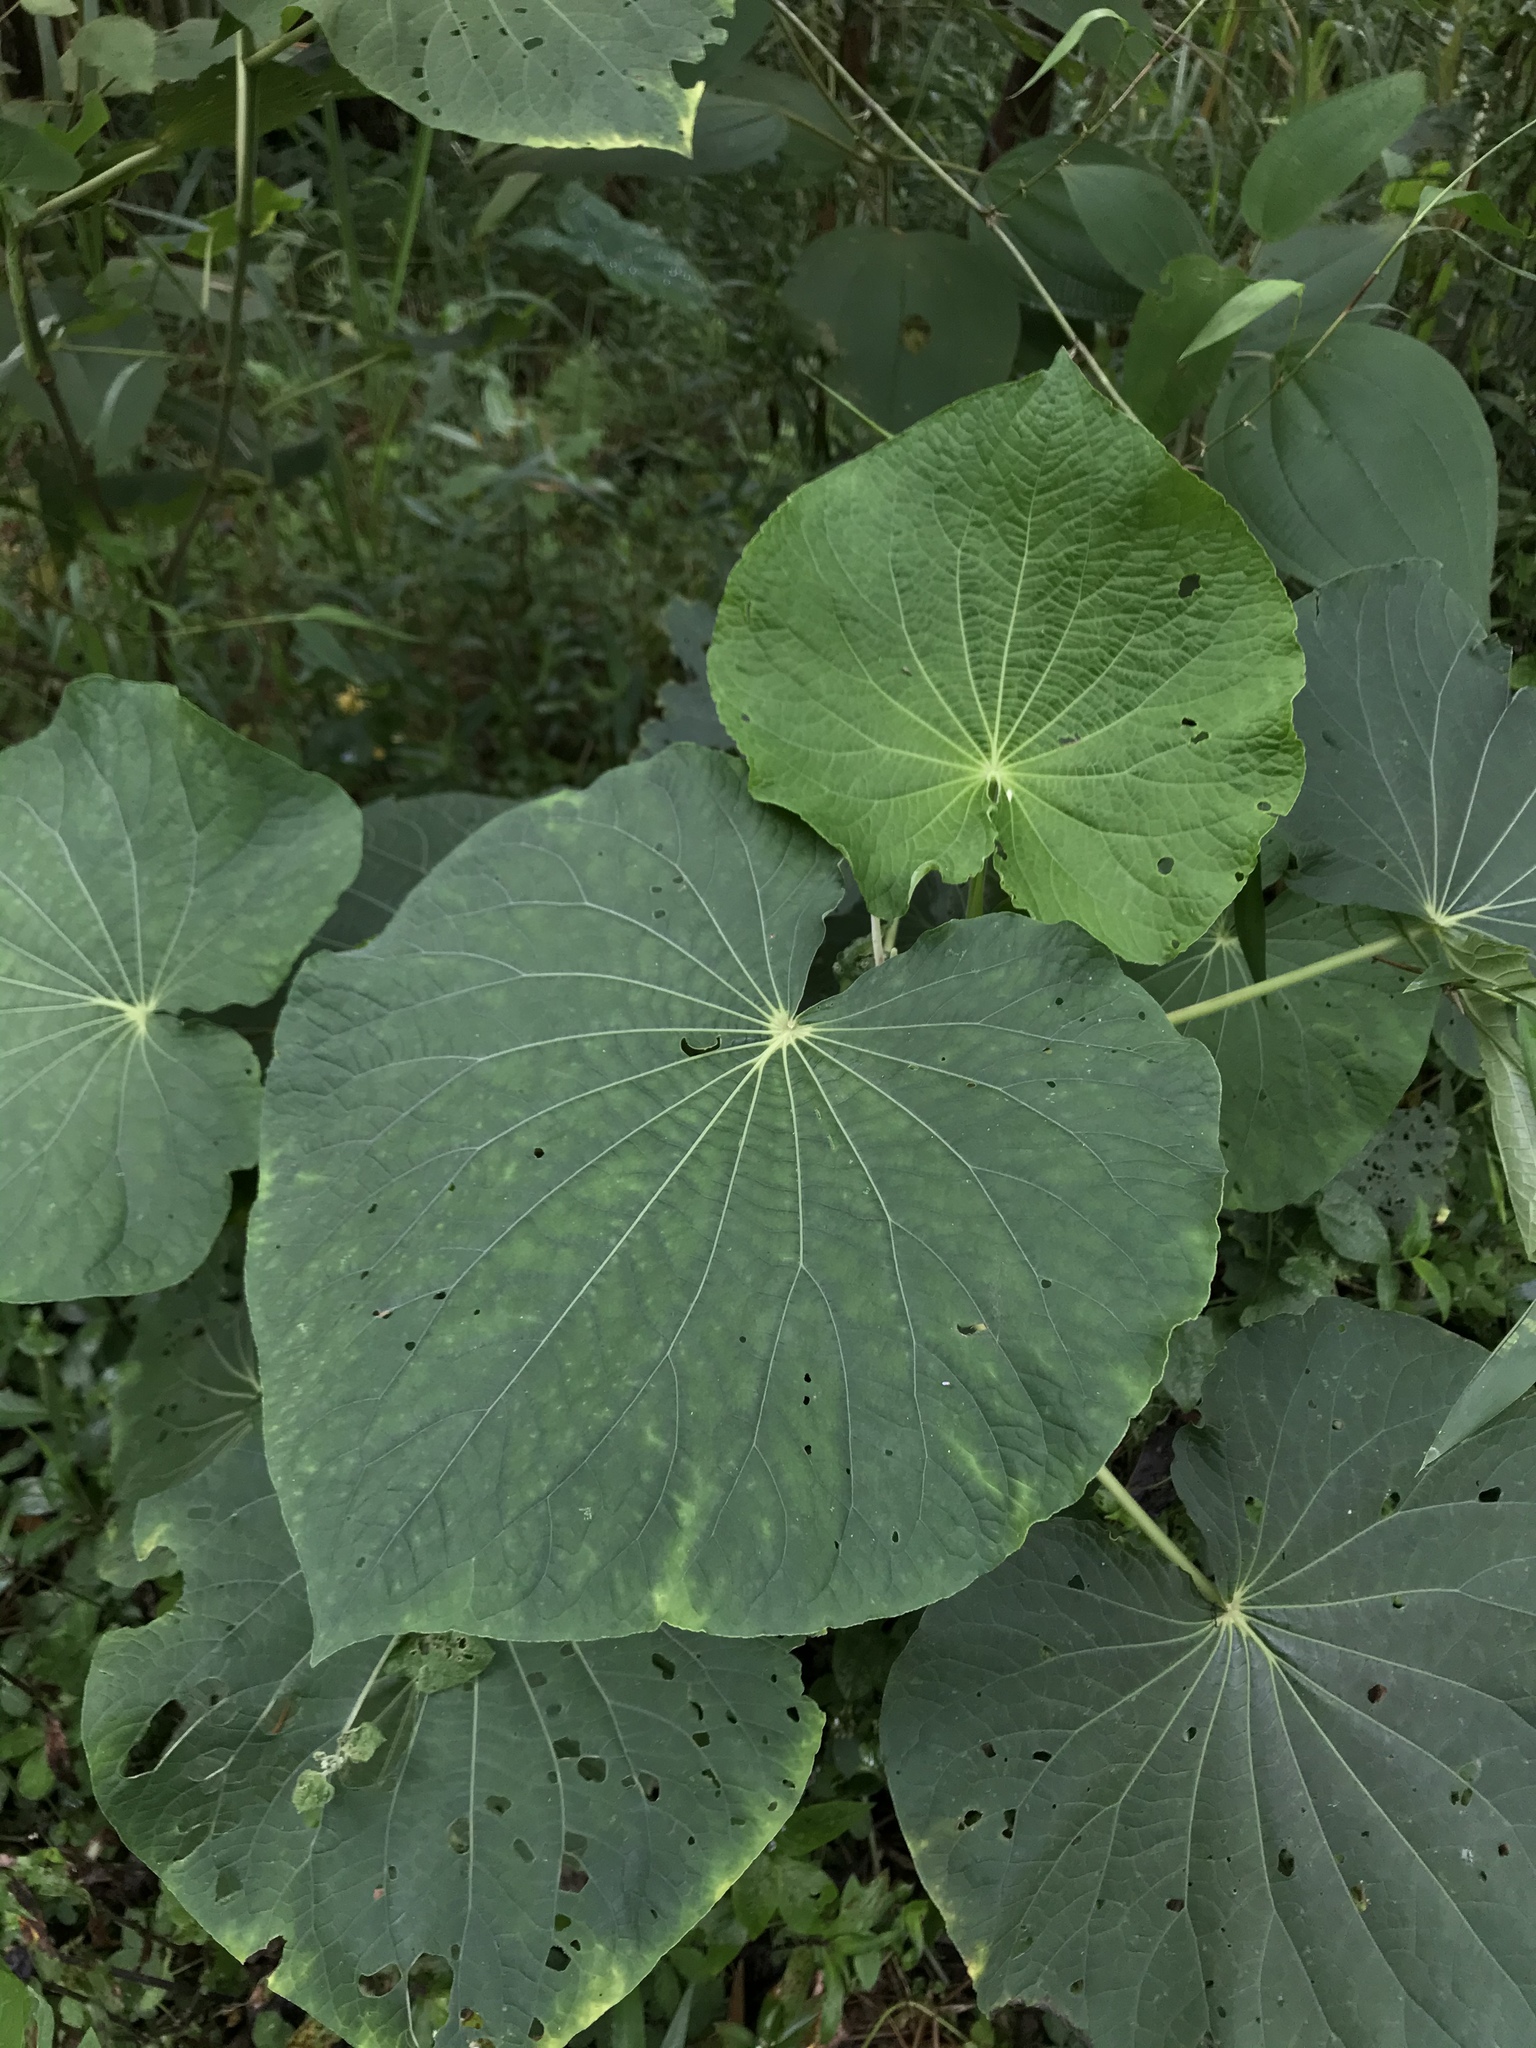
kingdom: Plantae
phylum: Tracheophyta
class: Magnoliopsida
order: Piperales
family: Piperaceae
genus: Piper
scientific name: Piper umbellatum
